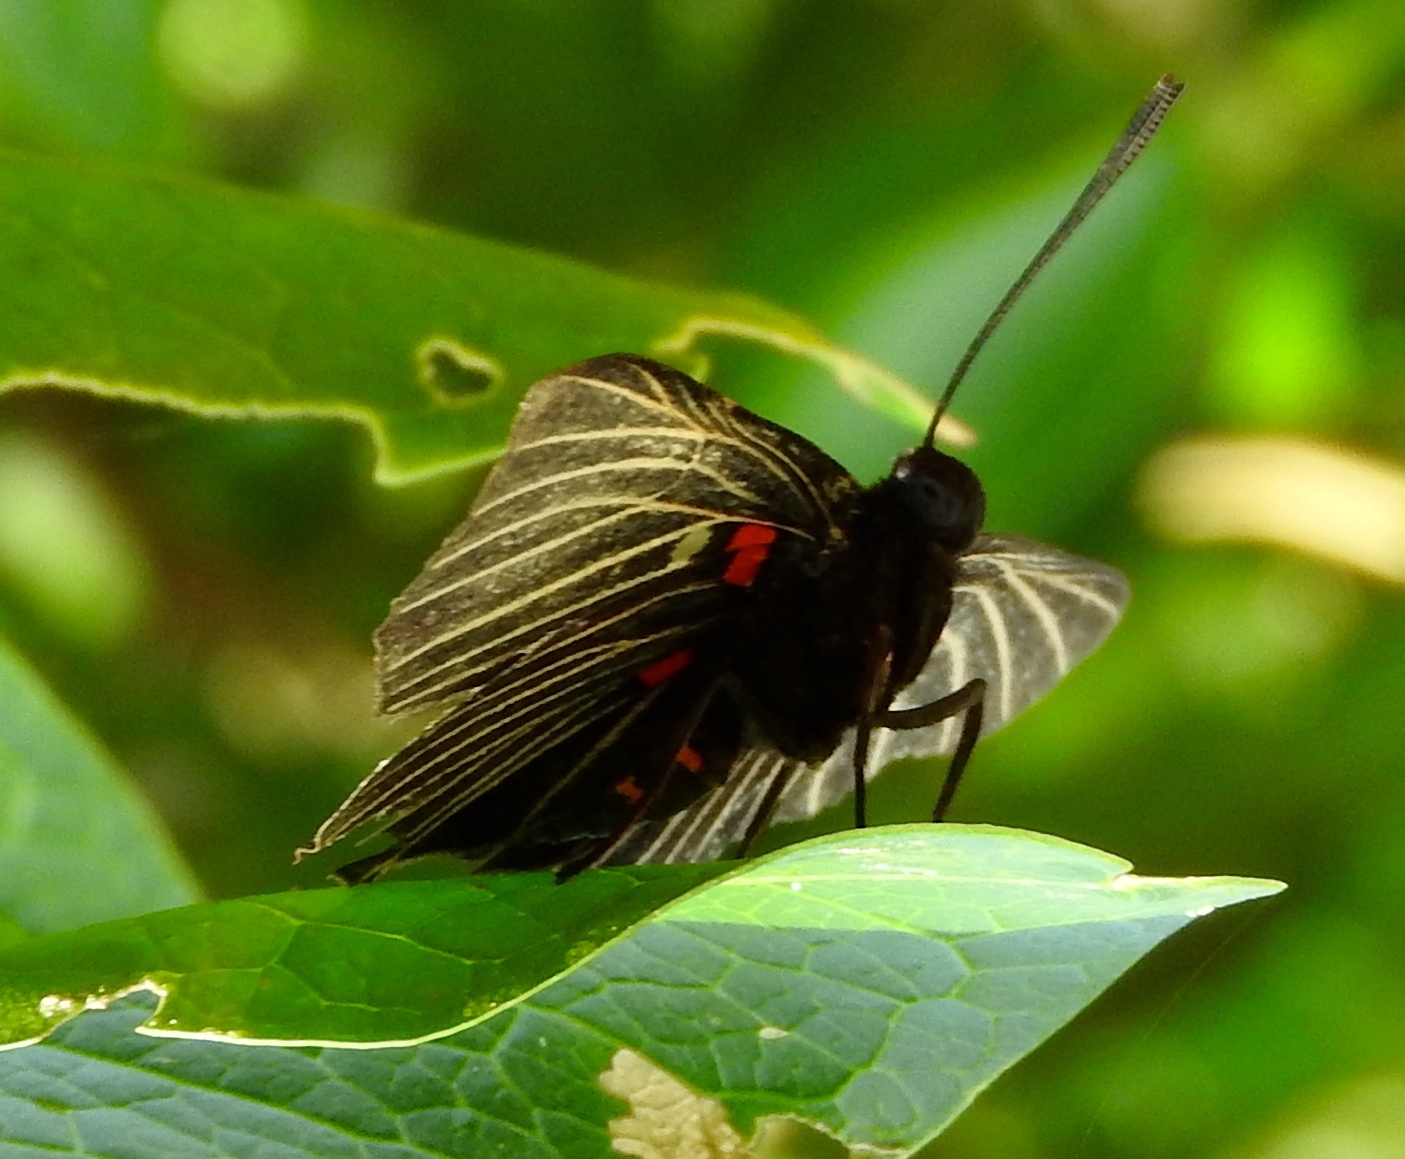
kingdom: Animalia
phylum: Arthropoda
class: Insecta
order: Lepidoptera
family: Lycaenidae
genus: Melanis
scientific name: Melanis
